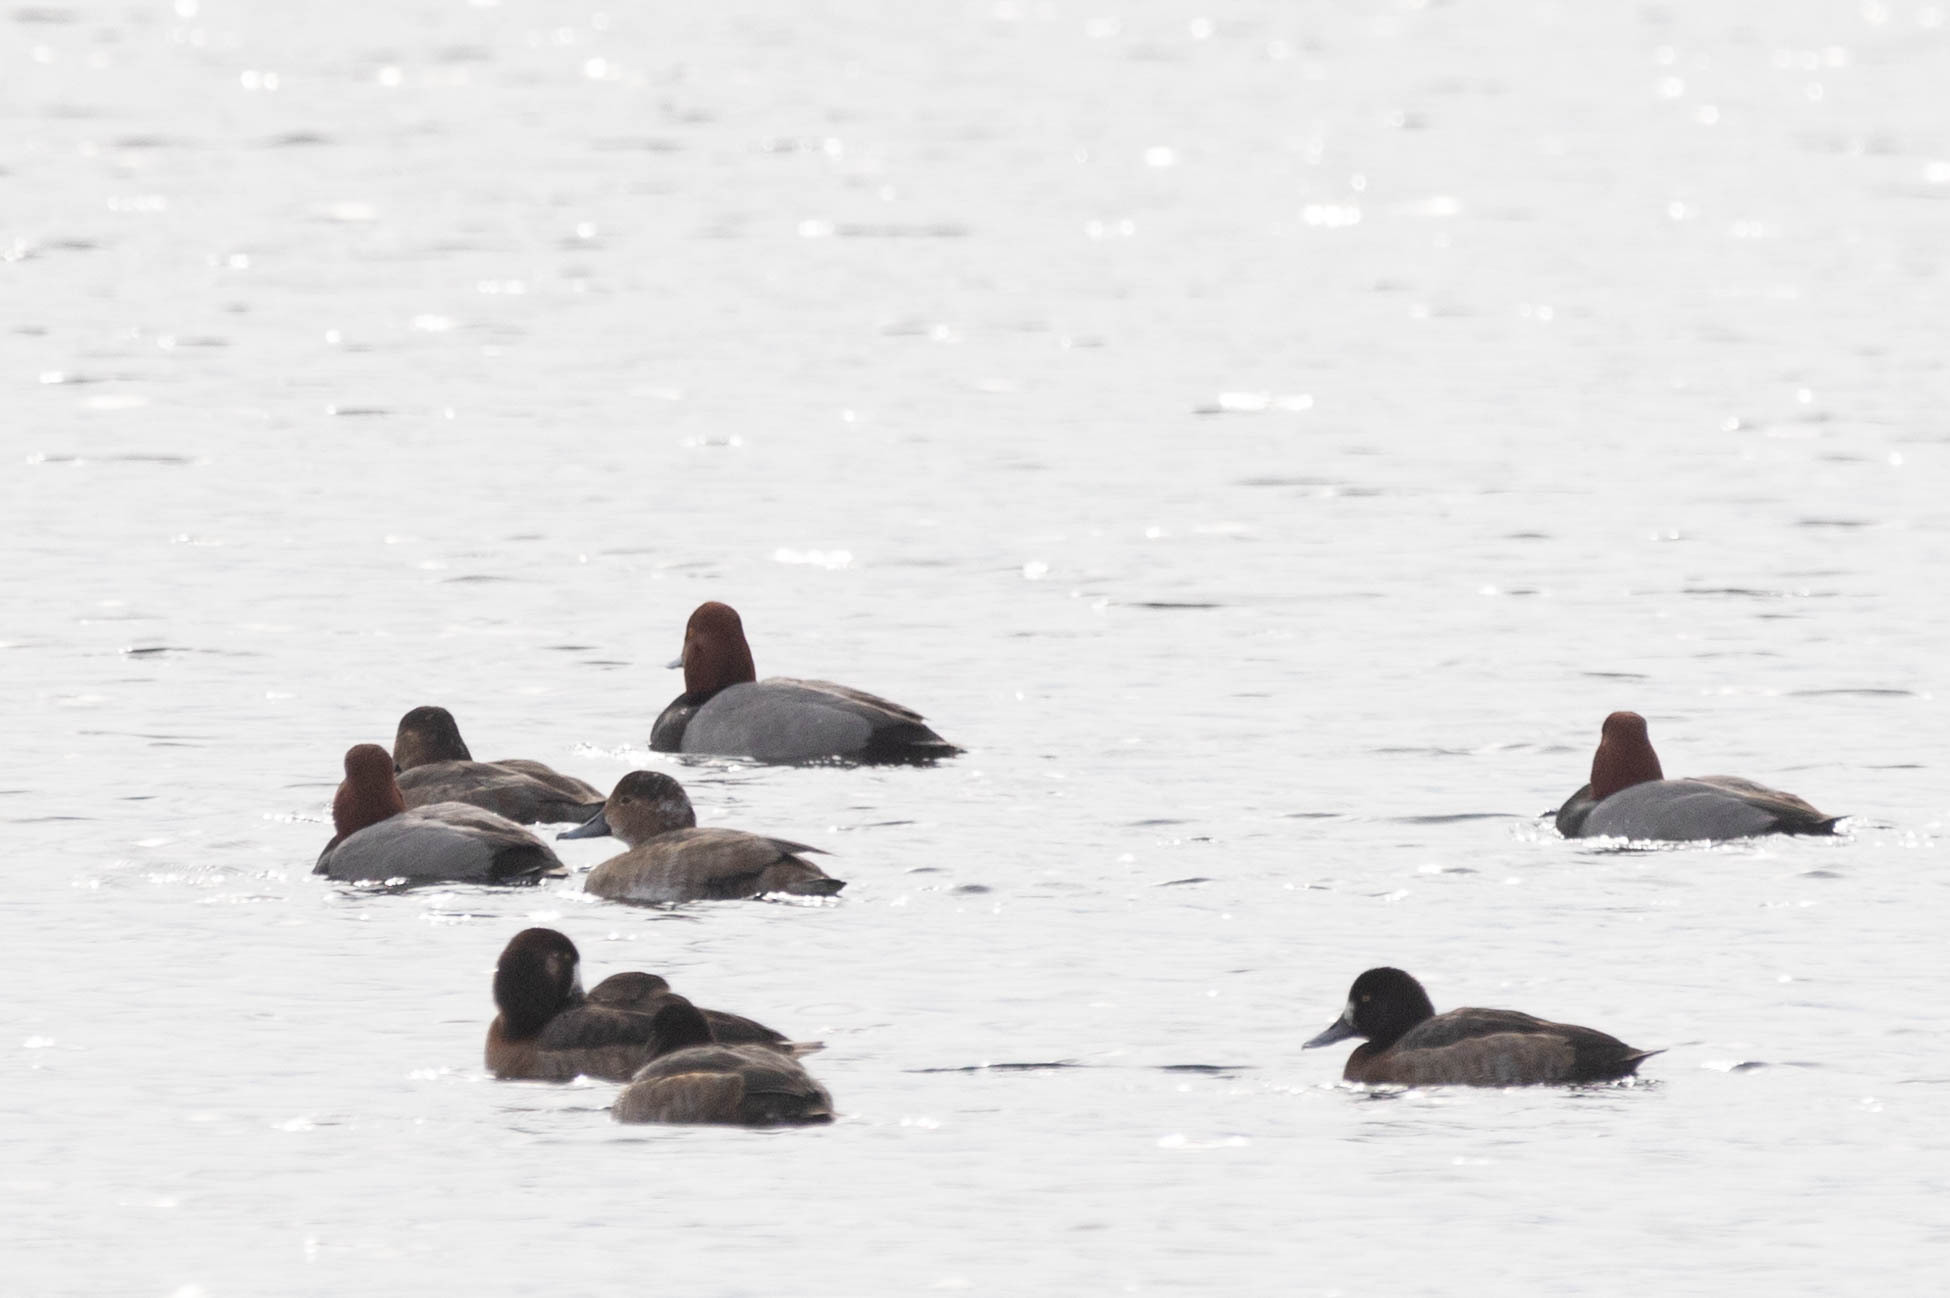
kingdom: Animalia
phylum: Chordata
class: Aves
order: Anseriformes
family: Anatidae
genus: Aythya
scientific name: Aythya americana
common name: Redhead
